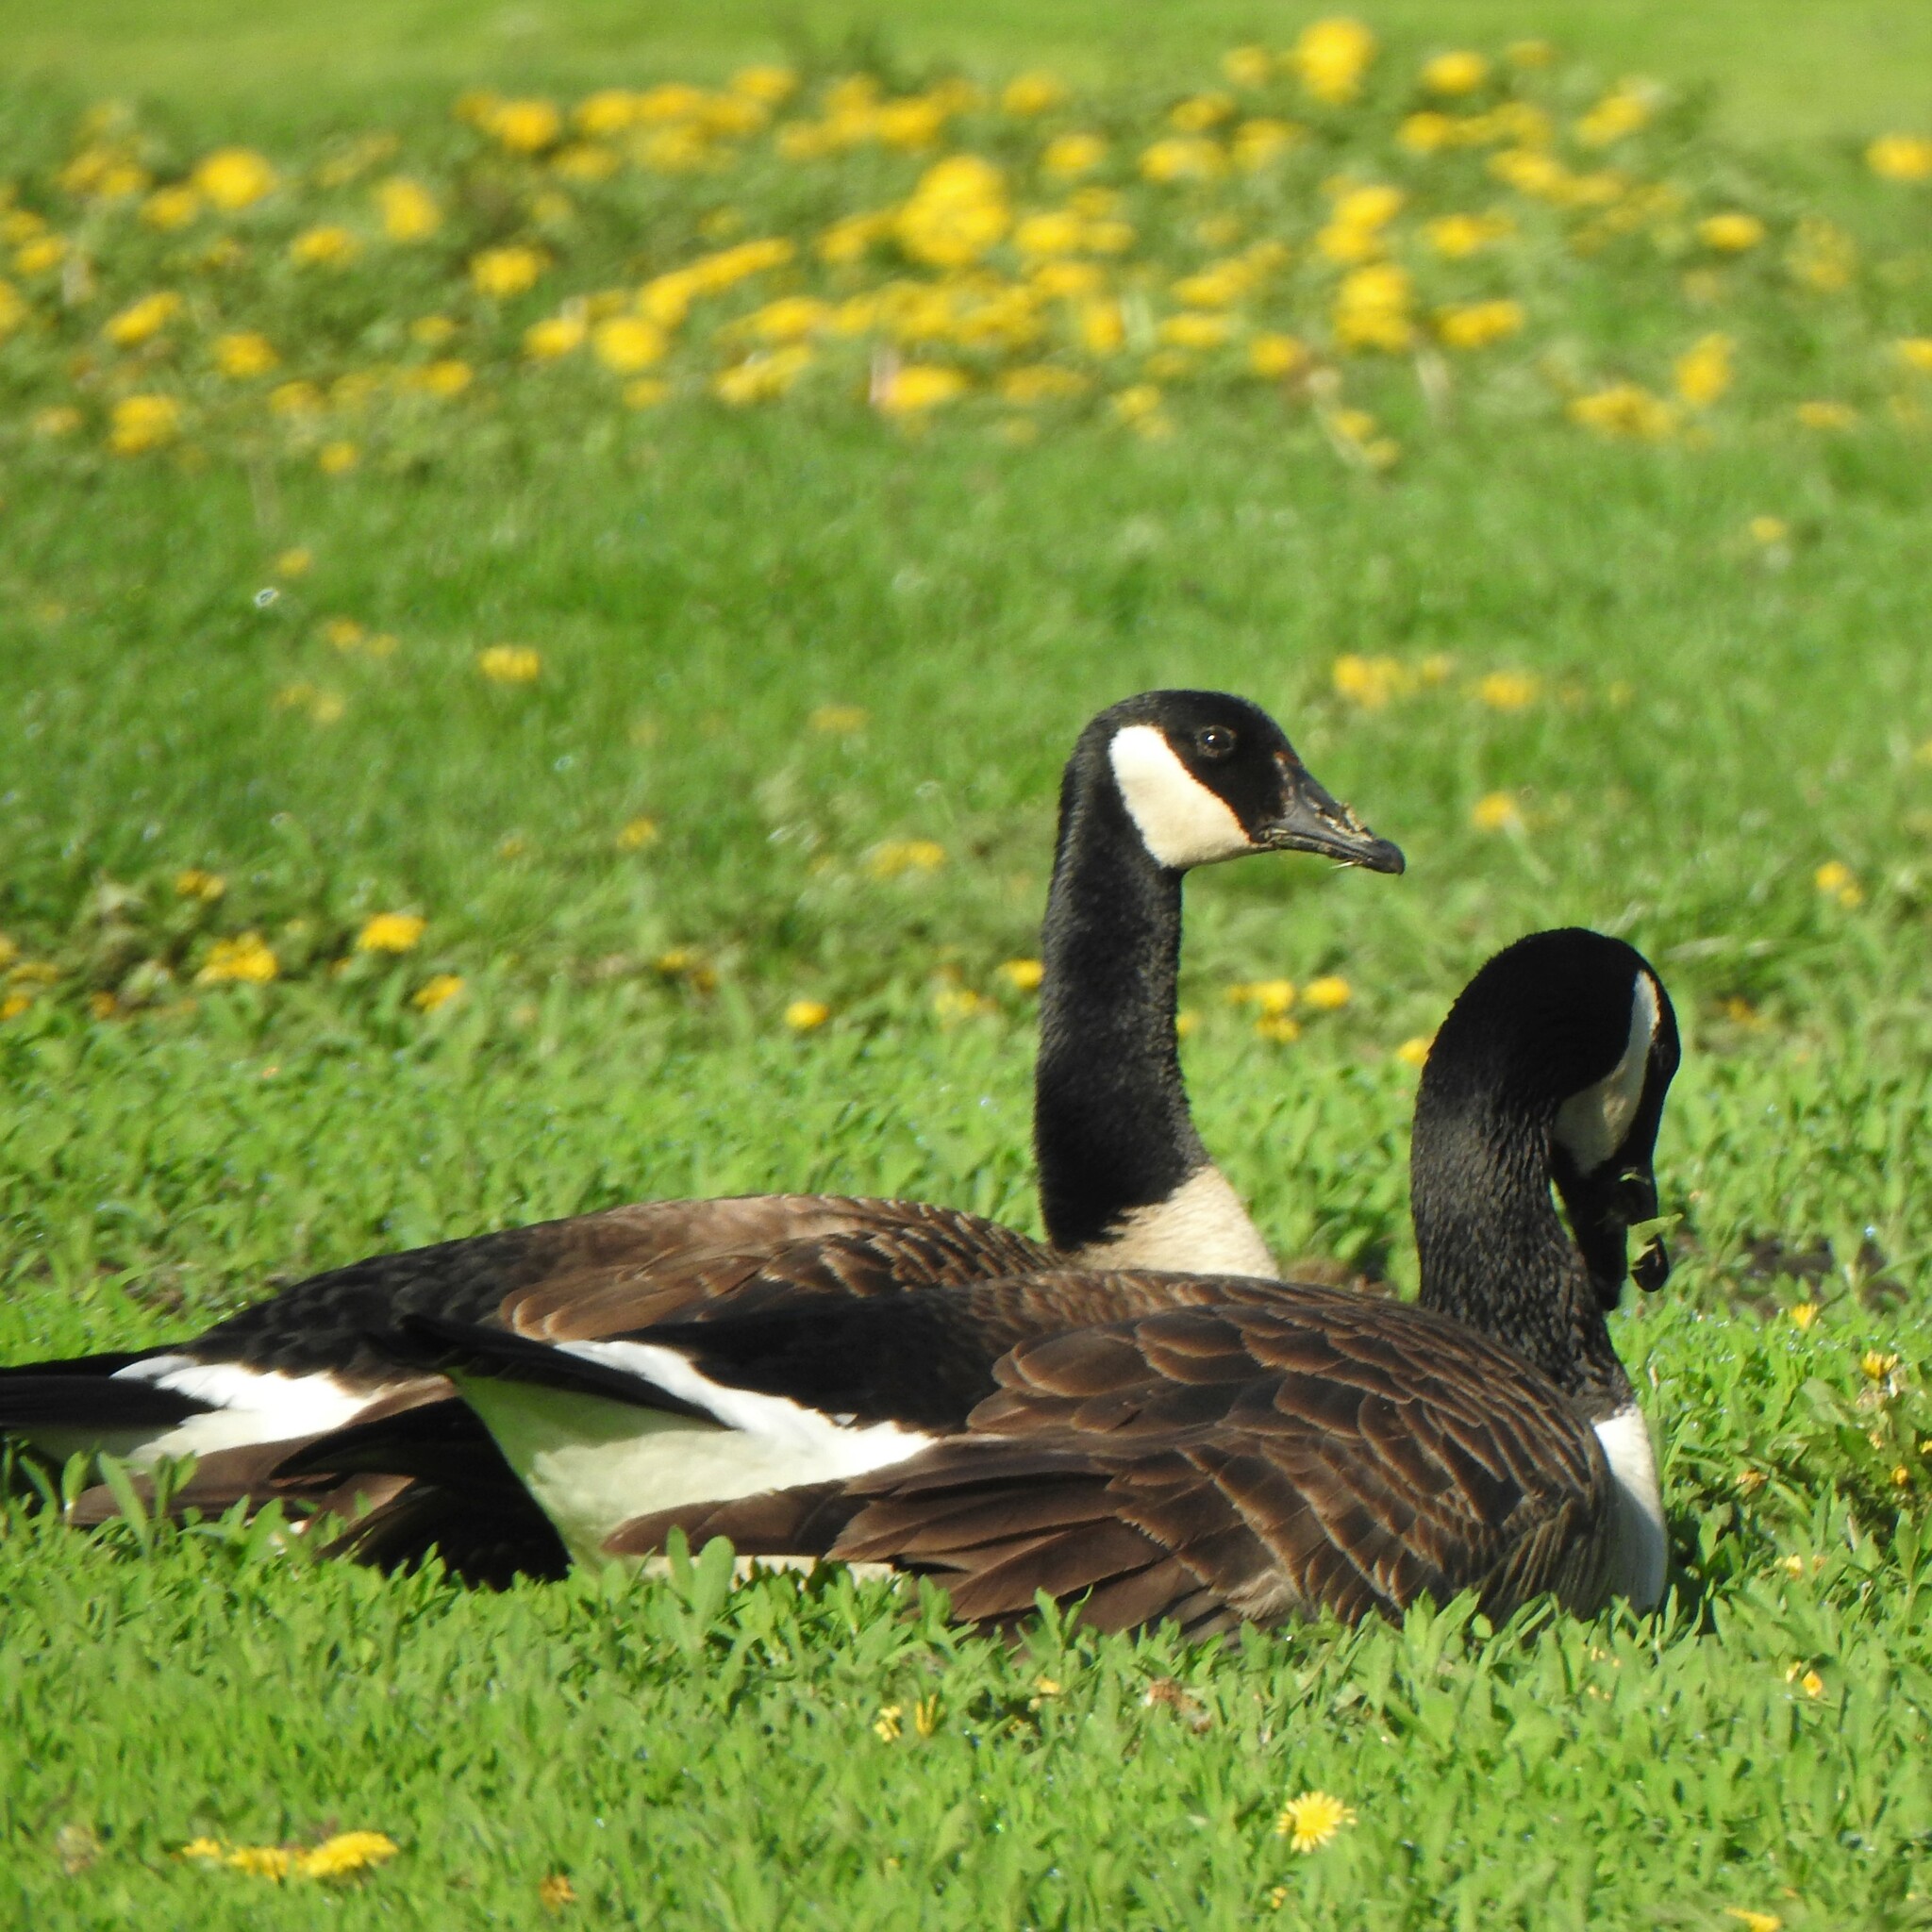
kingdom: Animalia
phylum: Chordata
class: Aves
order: Anseriformes
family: Anatidae
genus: Branta
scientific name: Branta canadensis
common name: Canada goose
